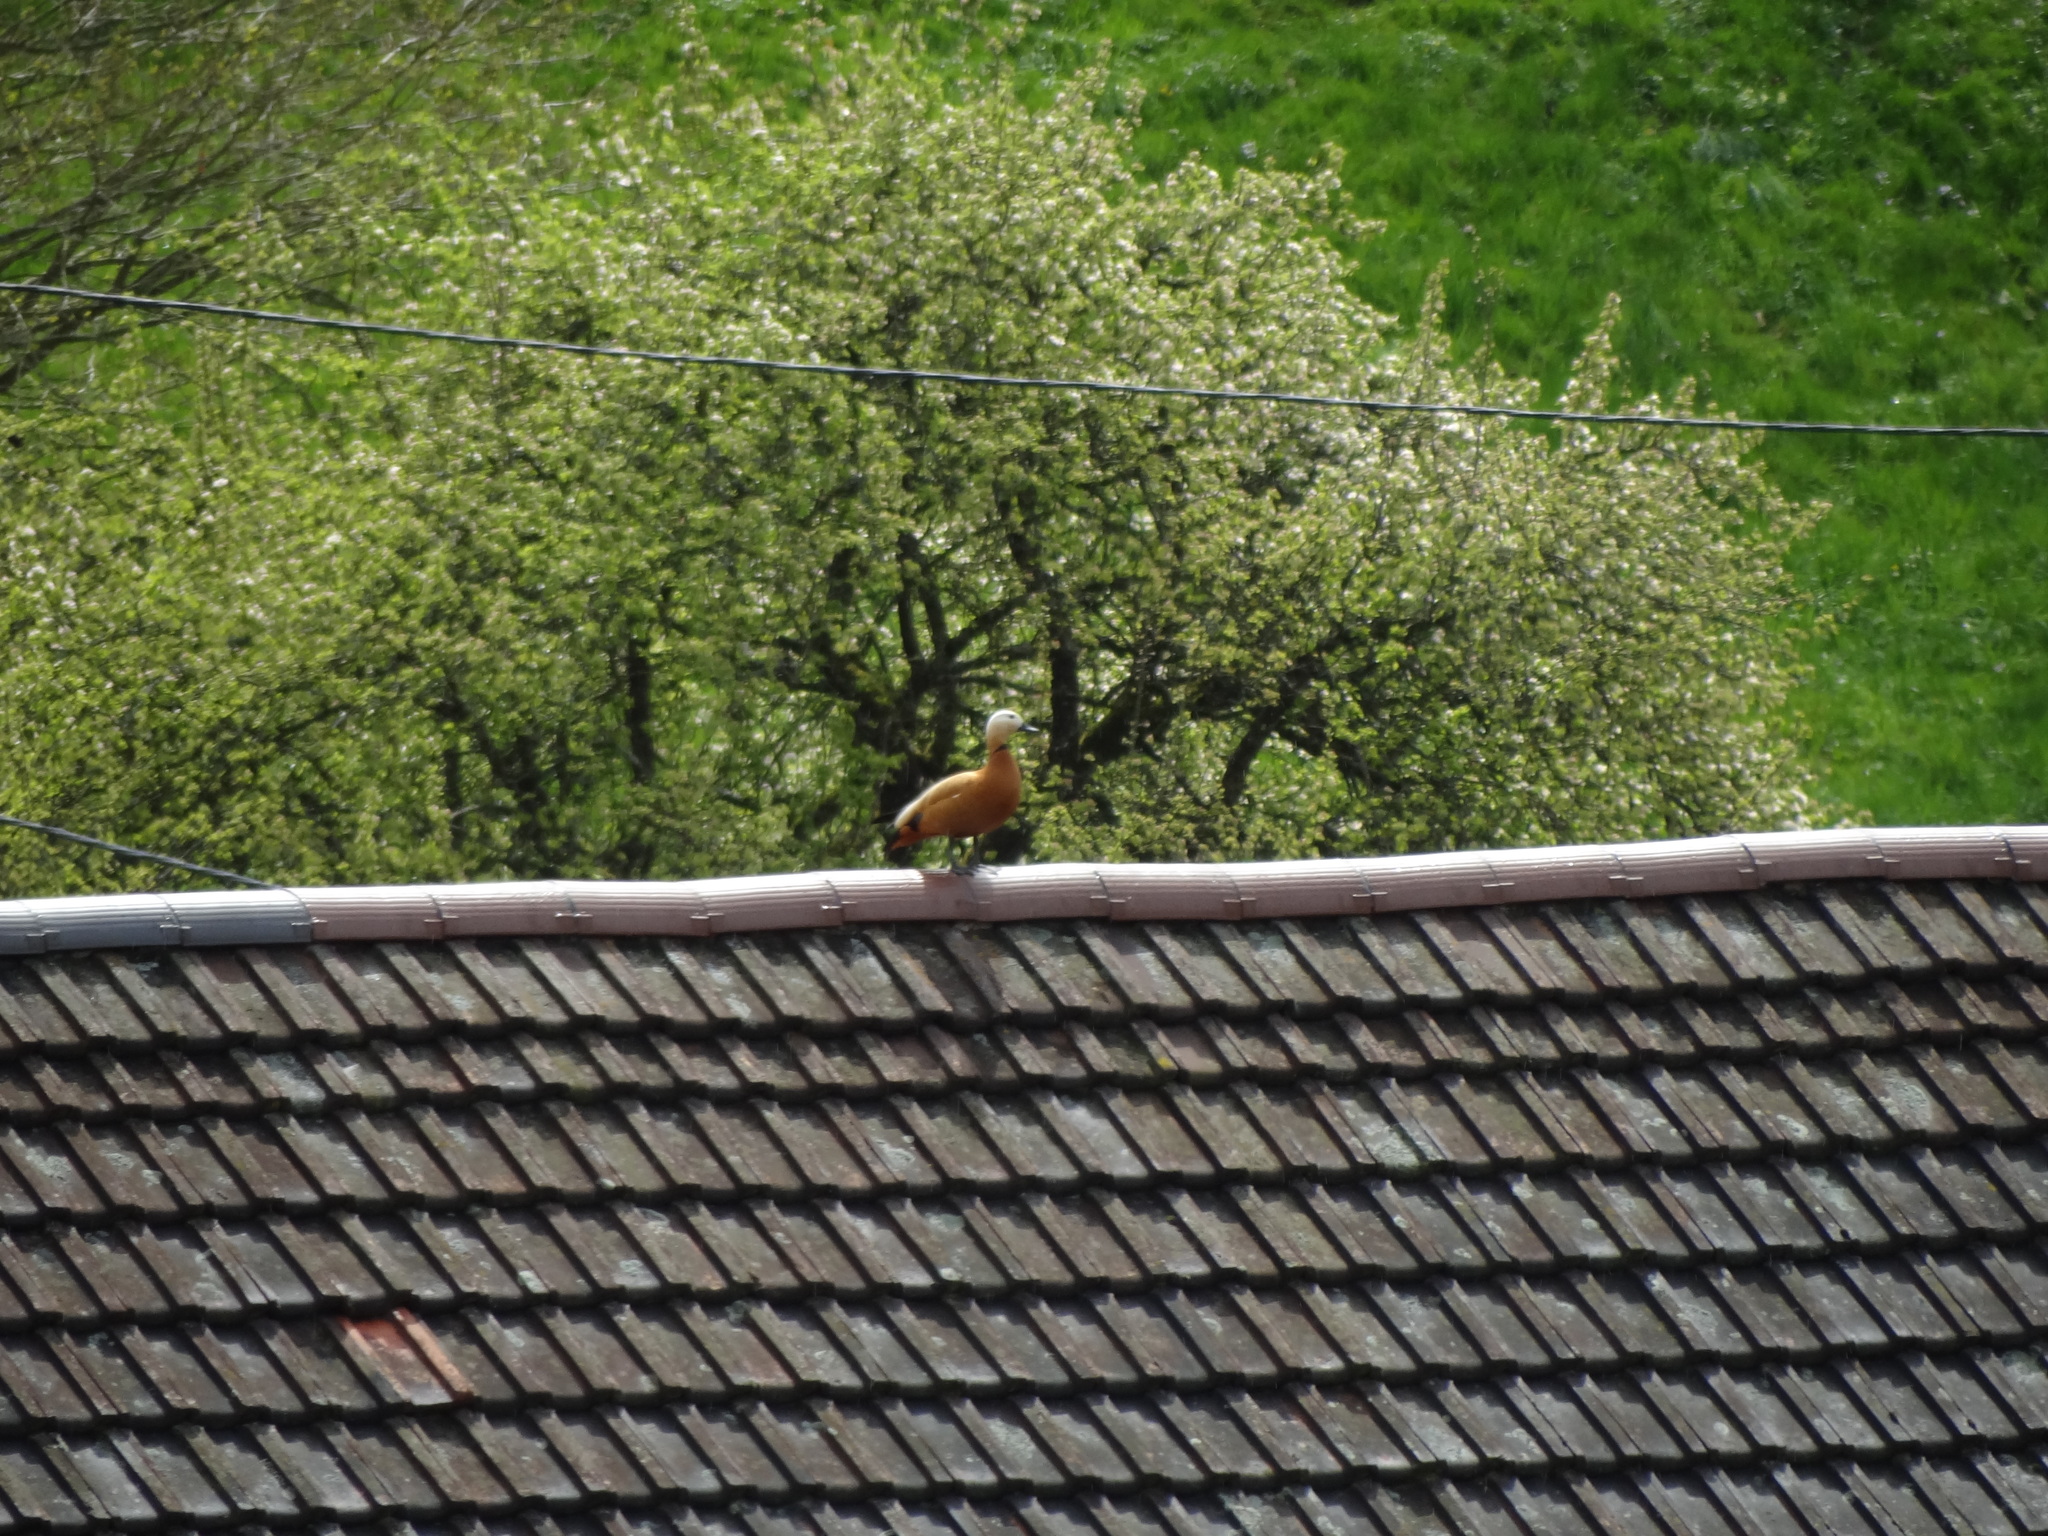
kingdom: Animalia
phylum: Chordata
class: Aves
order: Anseriformes
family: Anatidae
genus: Tadorna
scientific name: Tadorna ferruginea
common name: Ruddy shelduck
